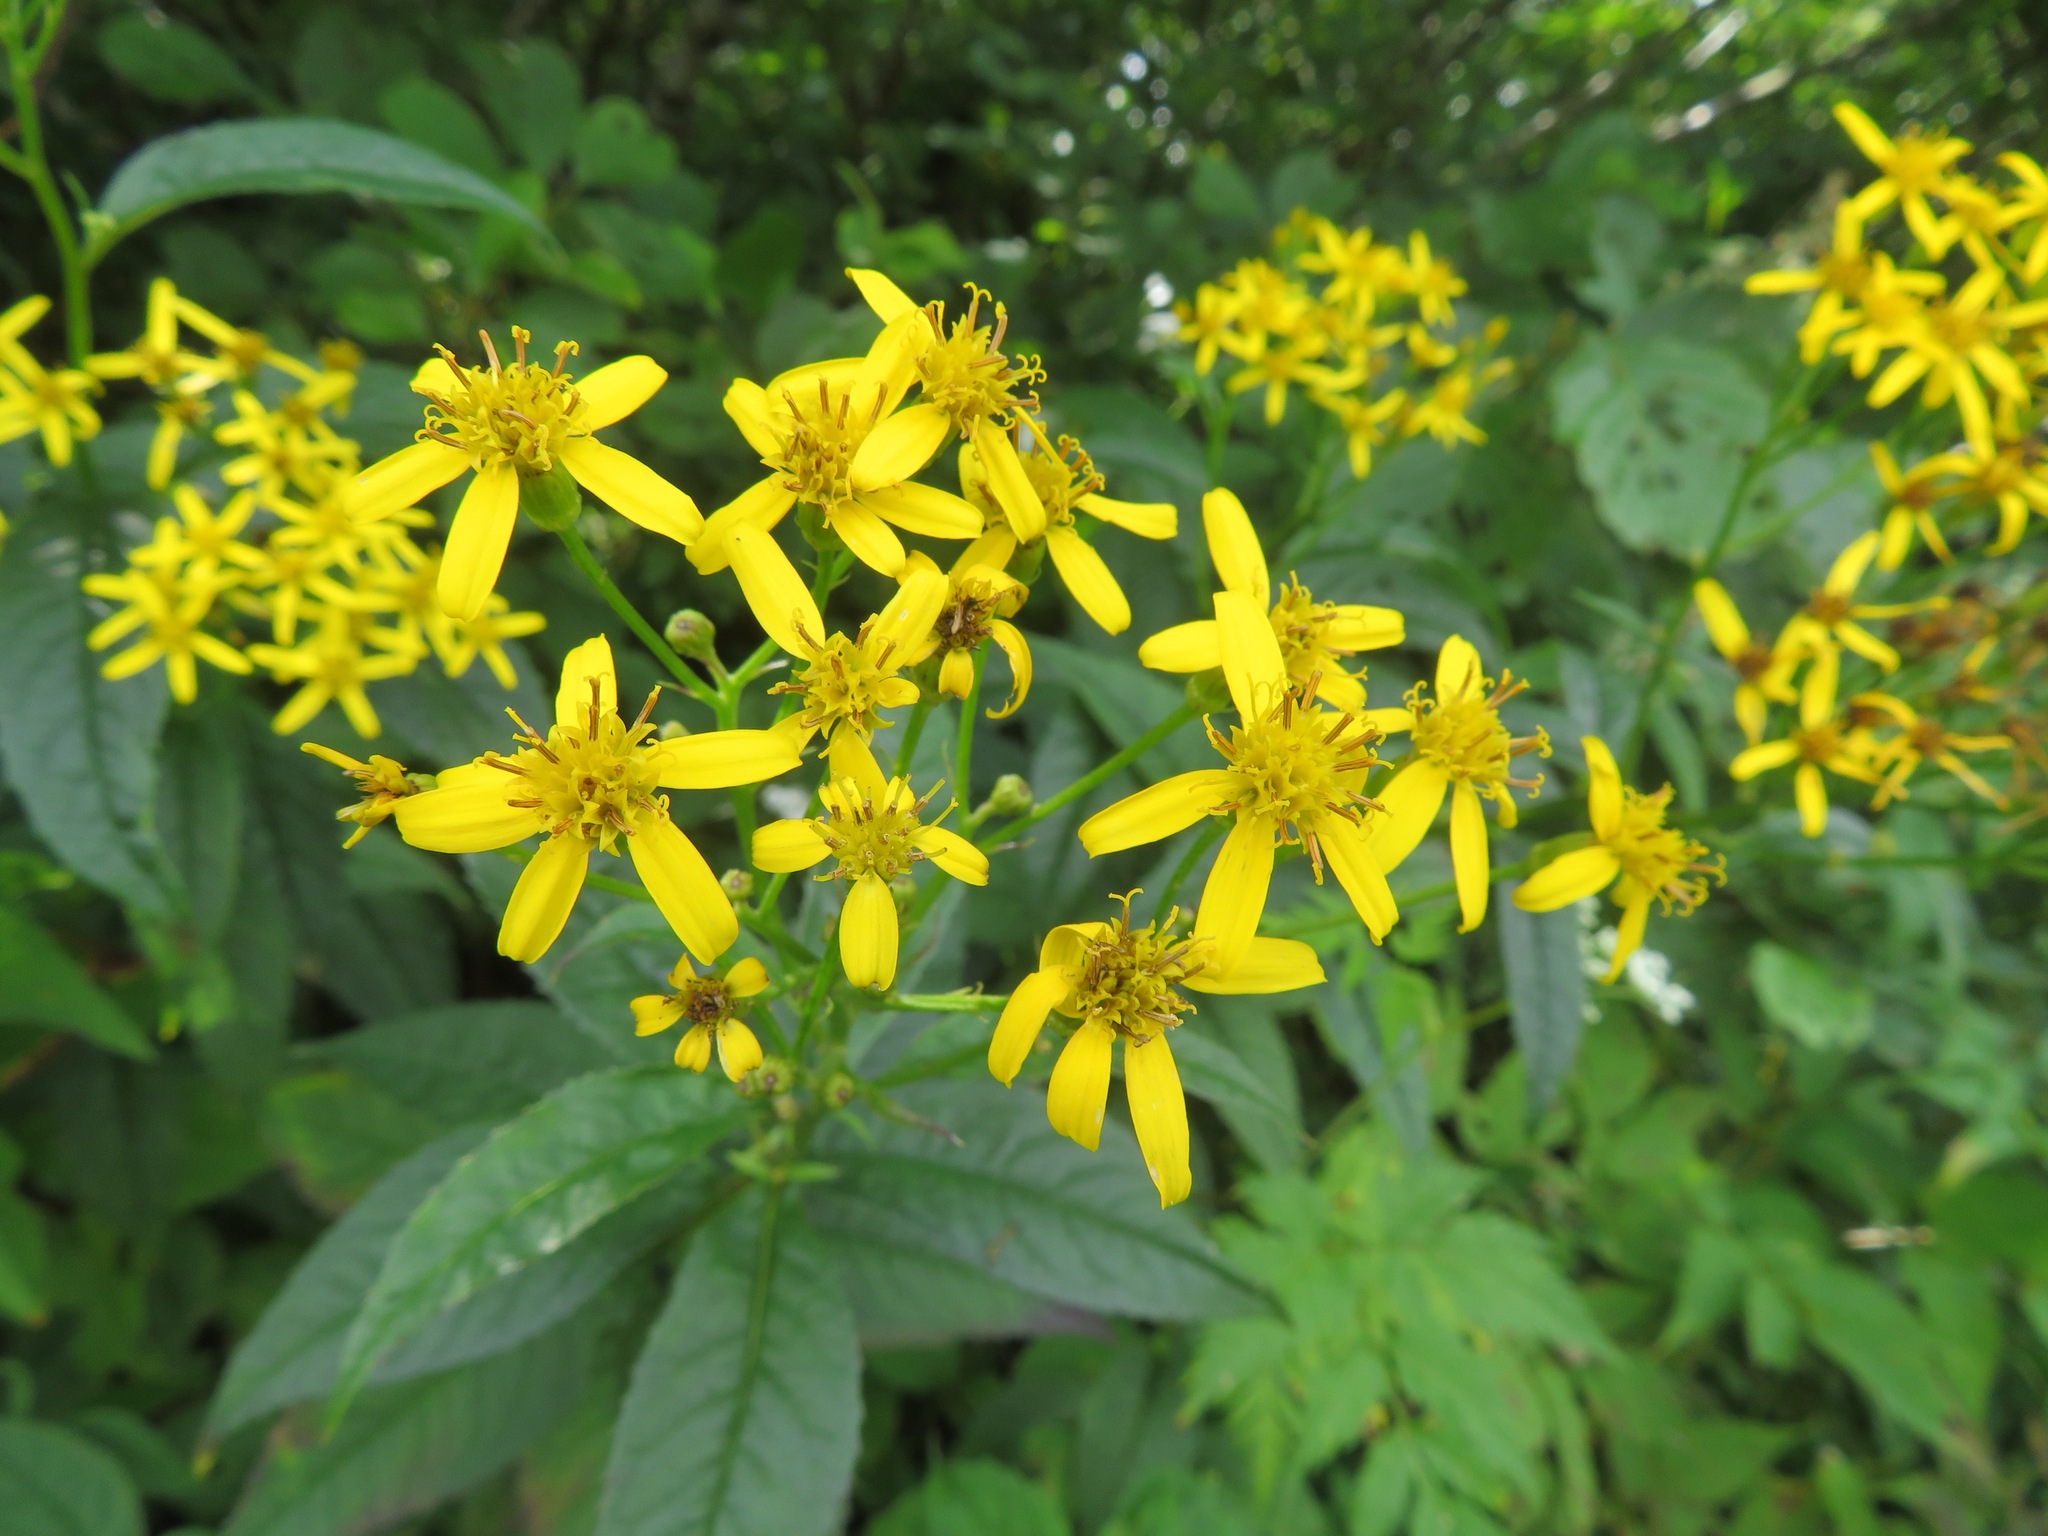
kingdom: Plantae
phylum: Tracheophyta
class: Magnoliopsida
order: Asterales
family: Asteraceae
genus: Senecio
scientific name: Senecio nemorensis
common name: Alpine ragwort
